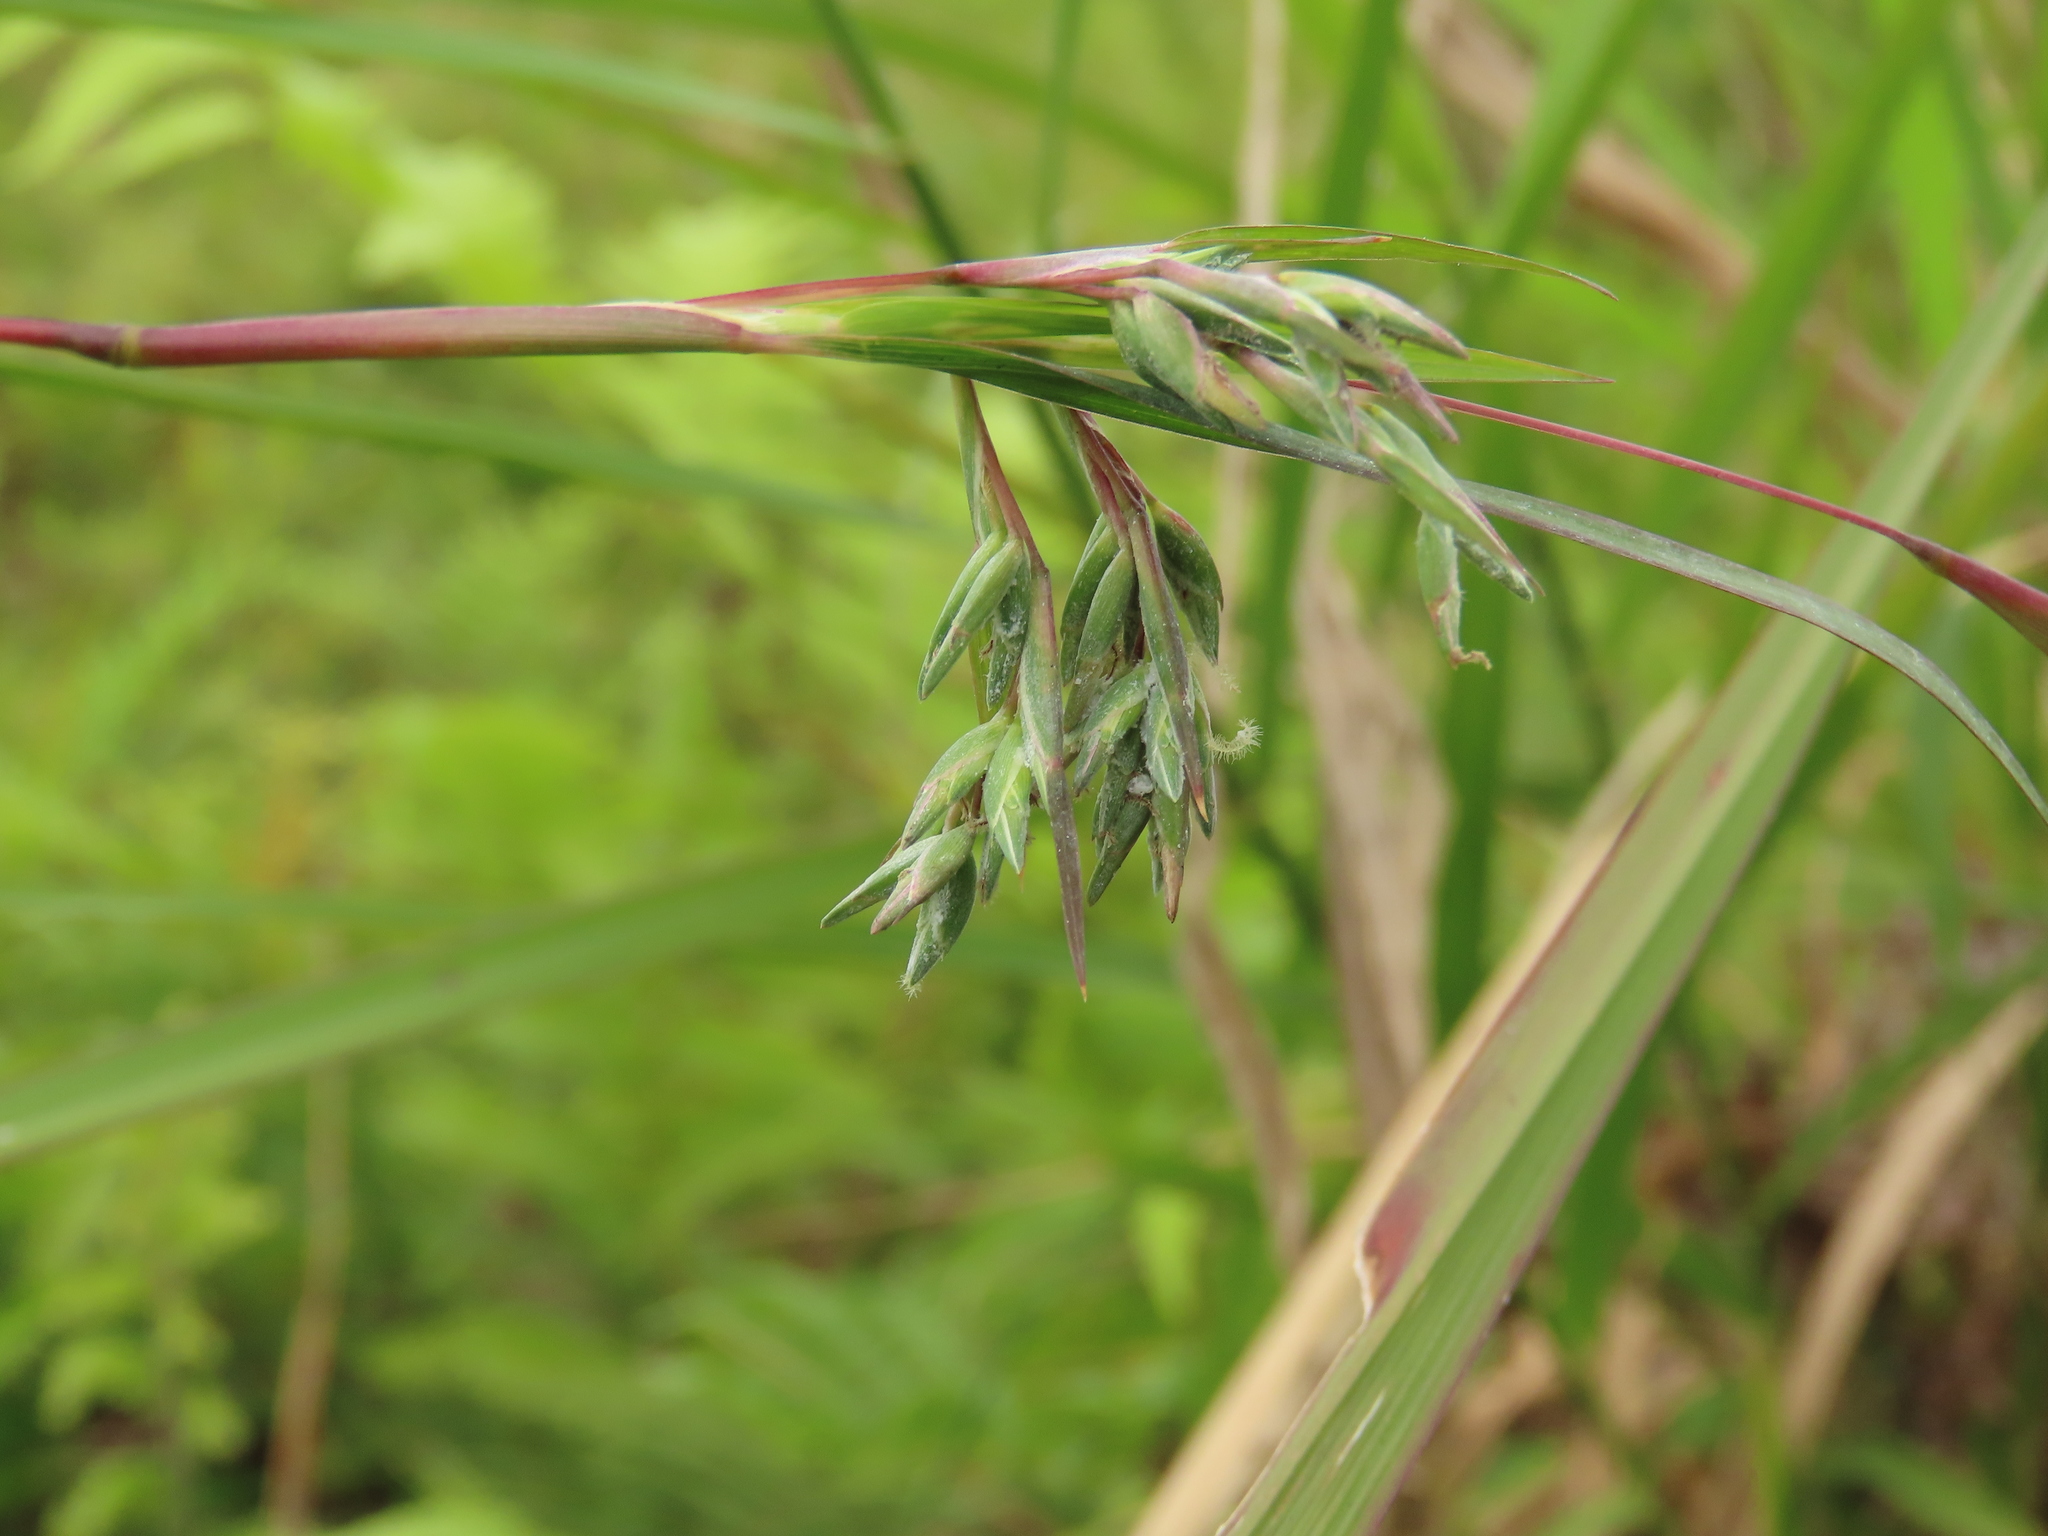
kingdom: Plantae
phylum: Tracheophyta
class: Liliopsida
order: Poales
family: Poaceae
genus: Apluda
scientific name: Apluda mutica
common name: Mauritian grass
